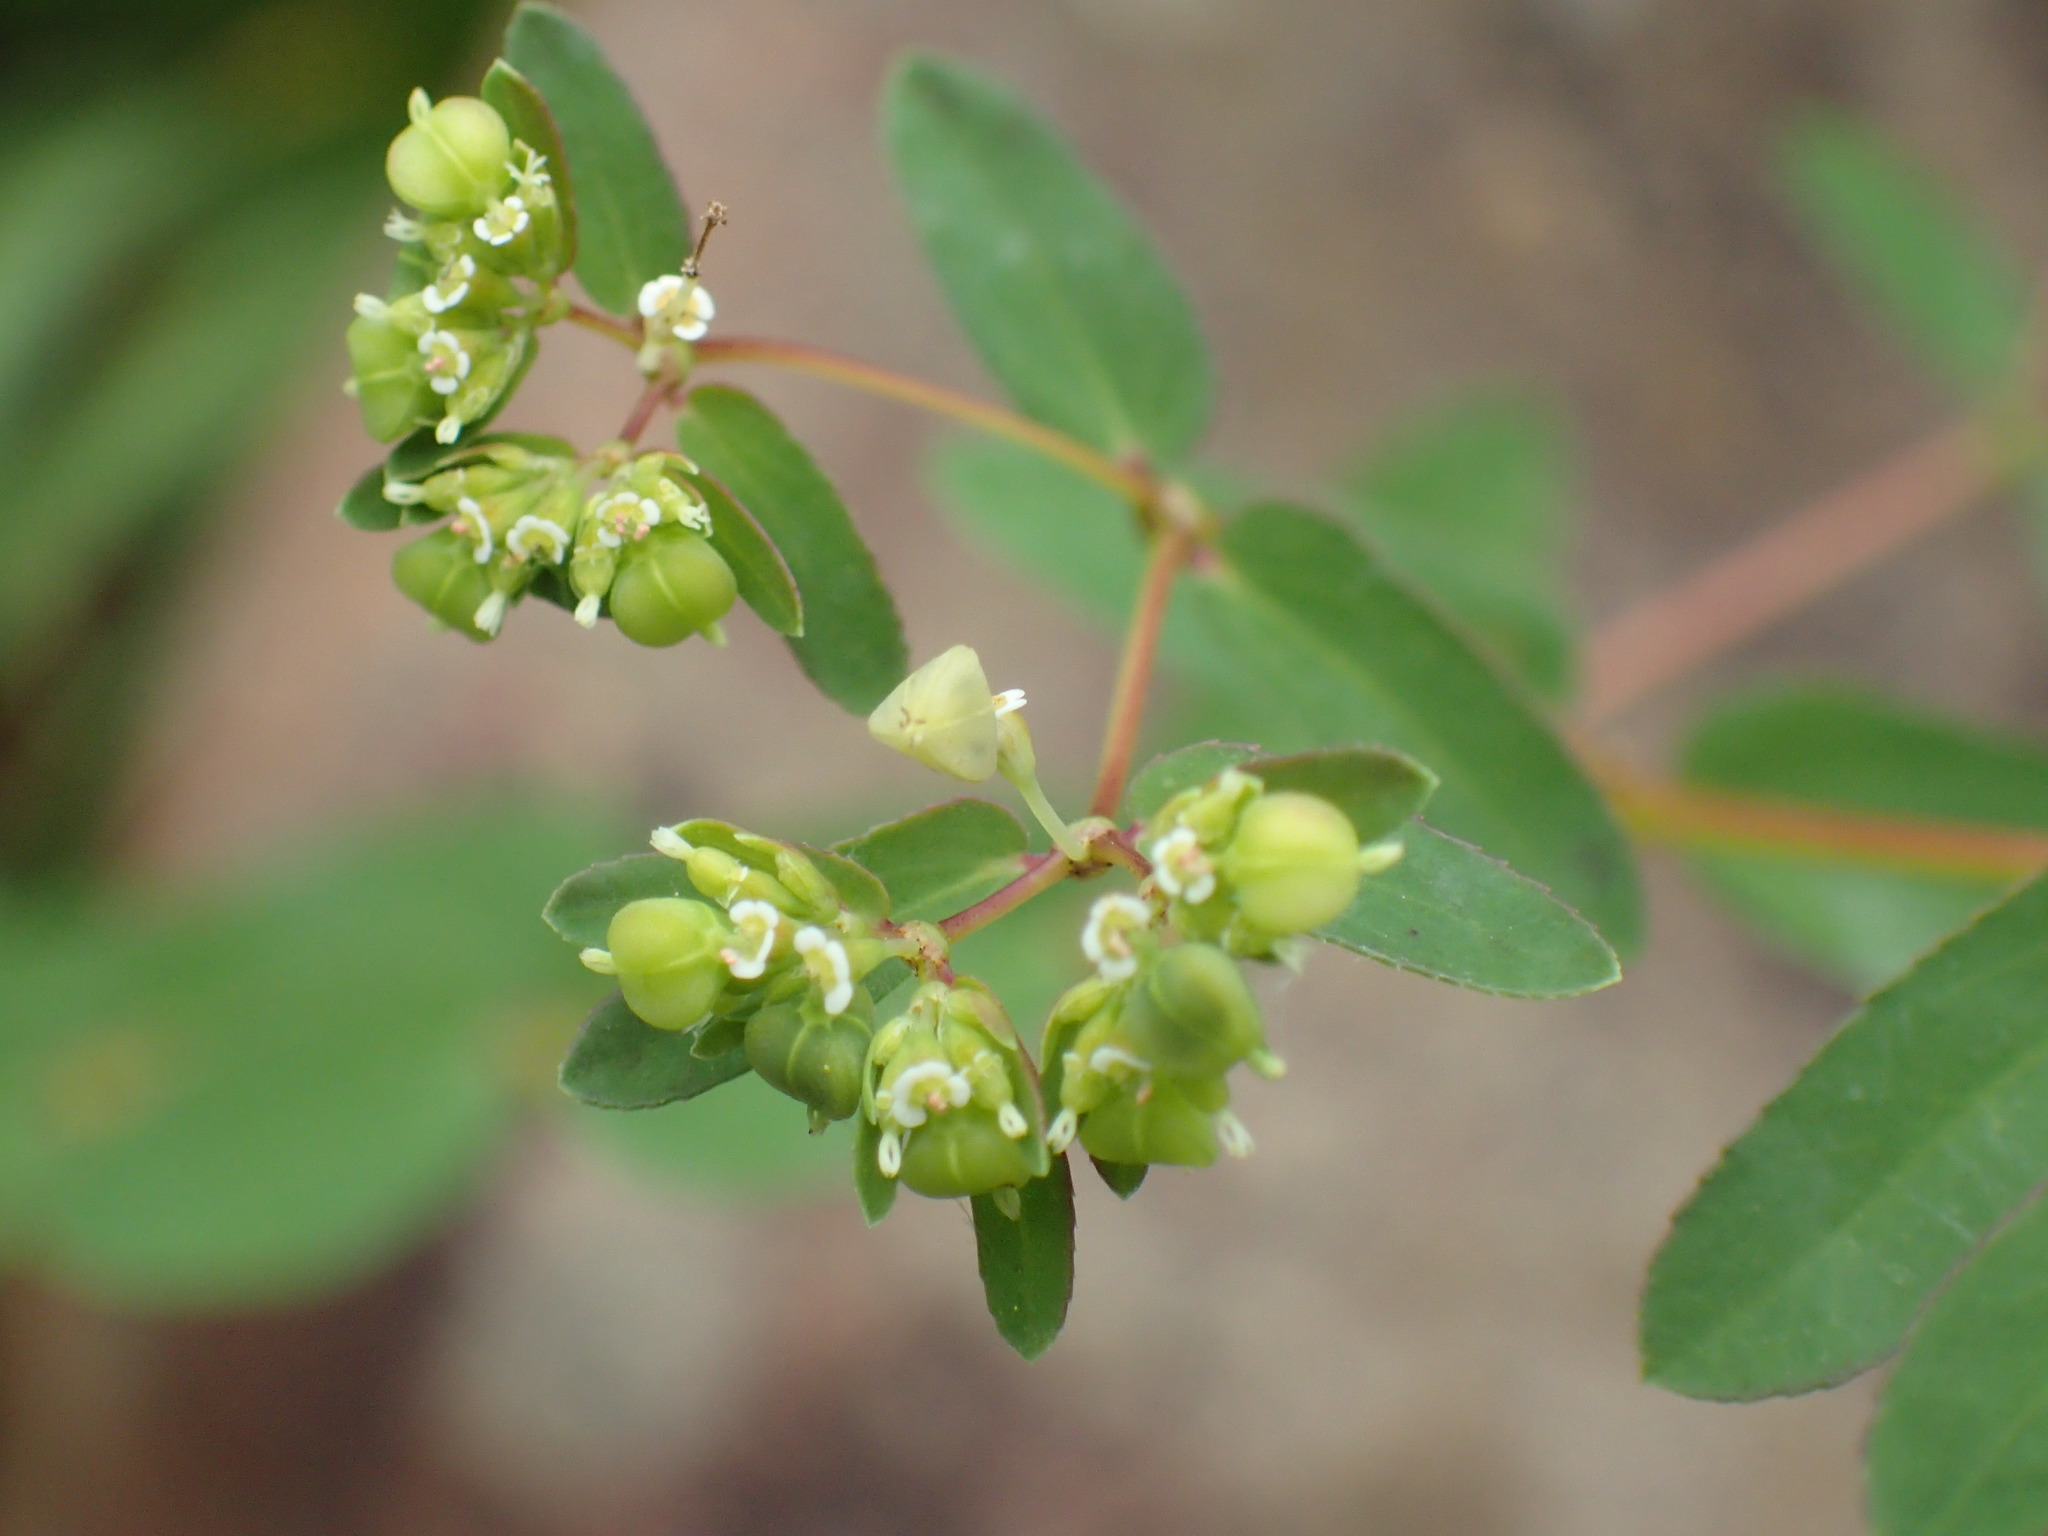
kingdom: Plantae
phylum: Tracheophyta
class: Magnoliopsida
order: Malpighiales
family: Euphorbiaceae
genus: Euphorbia
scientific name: Euphorbia nutans
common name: Eyebane
